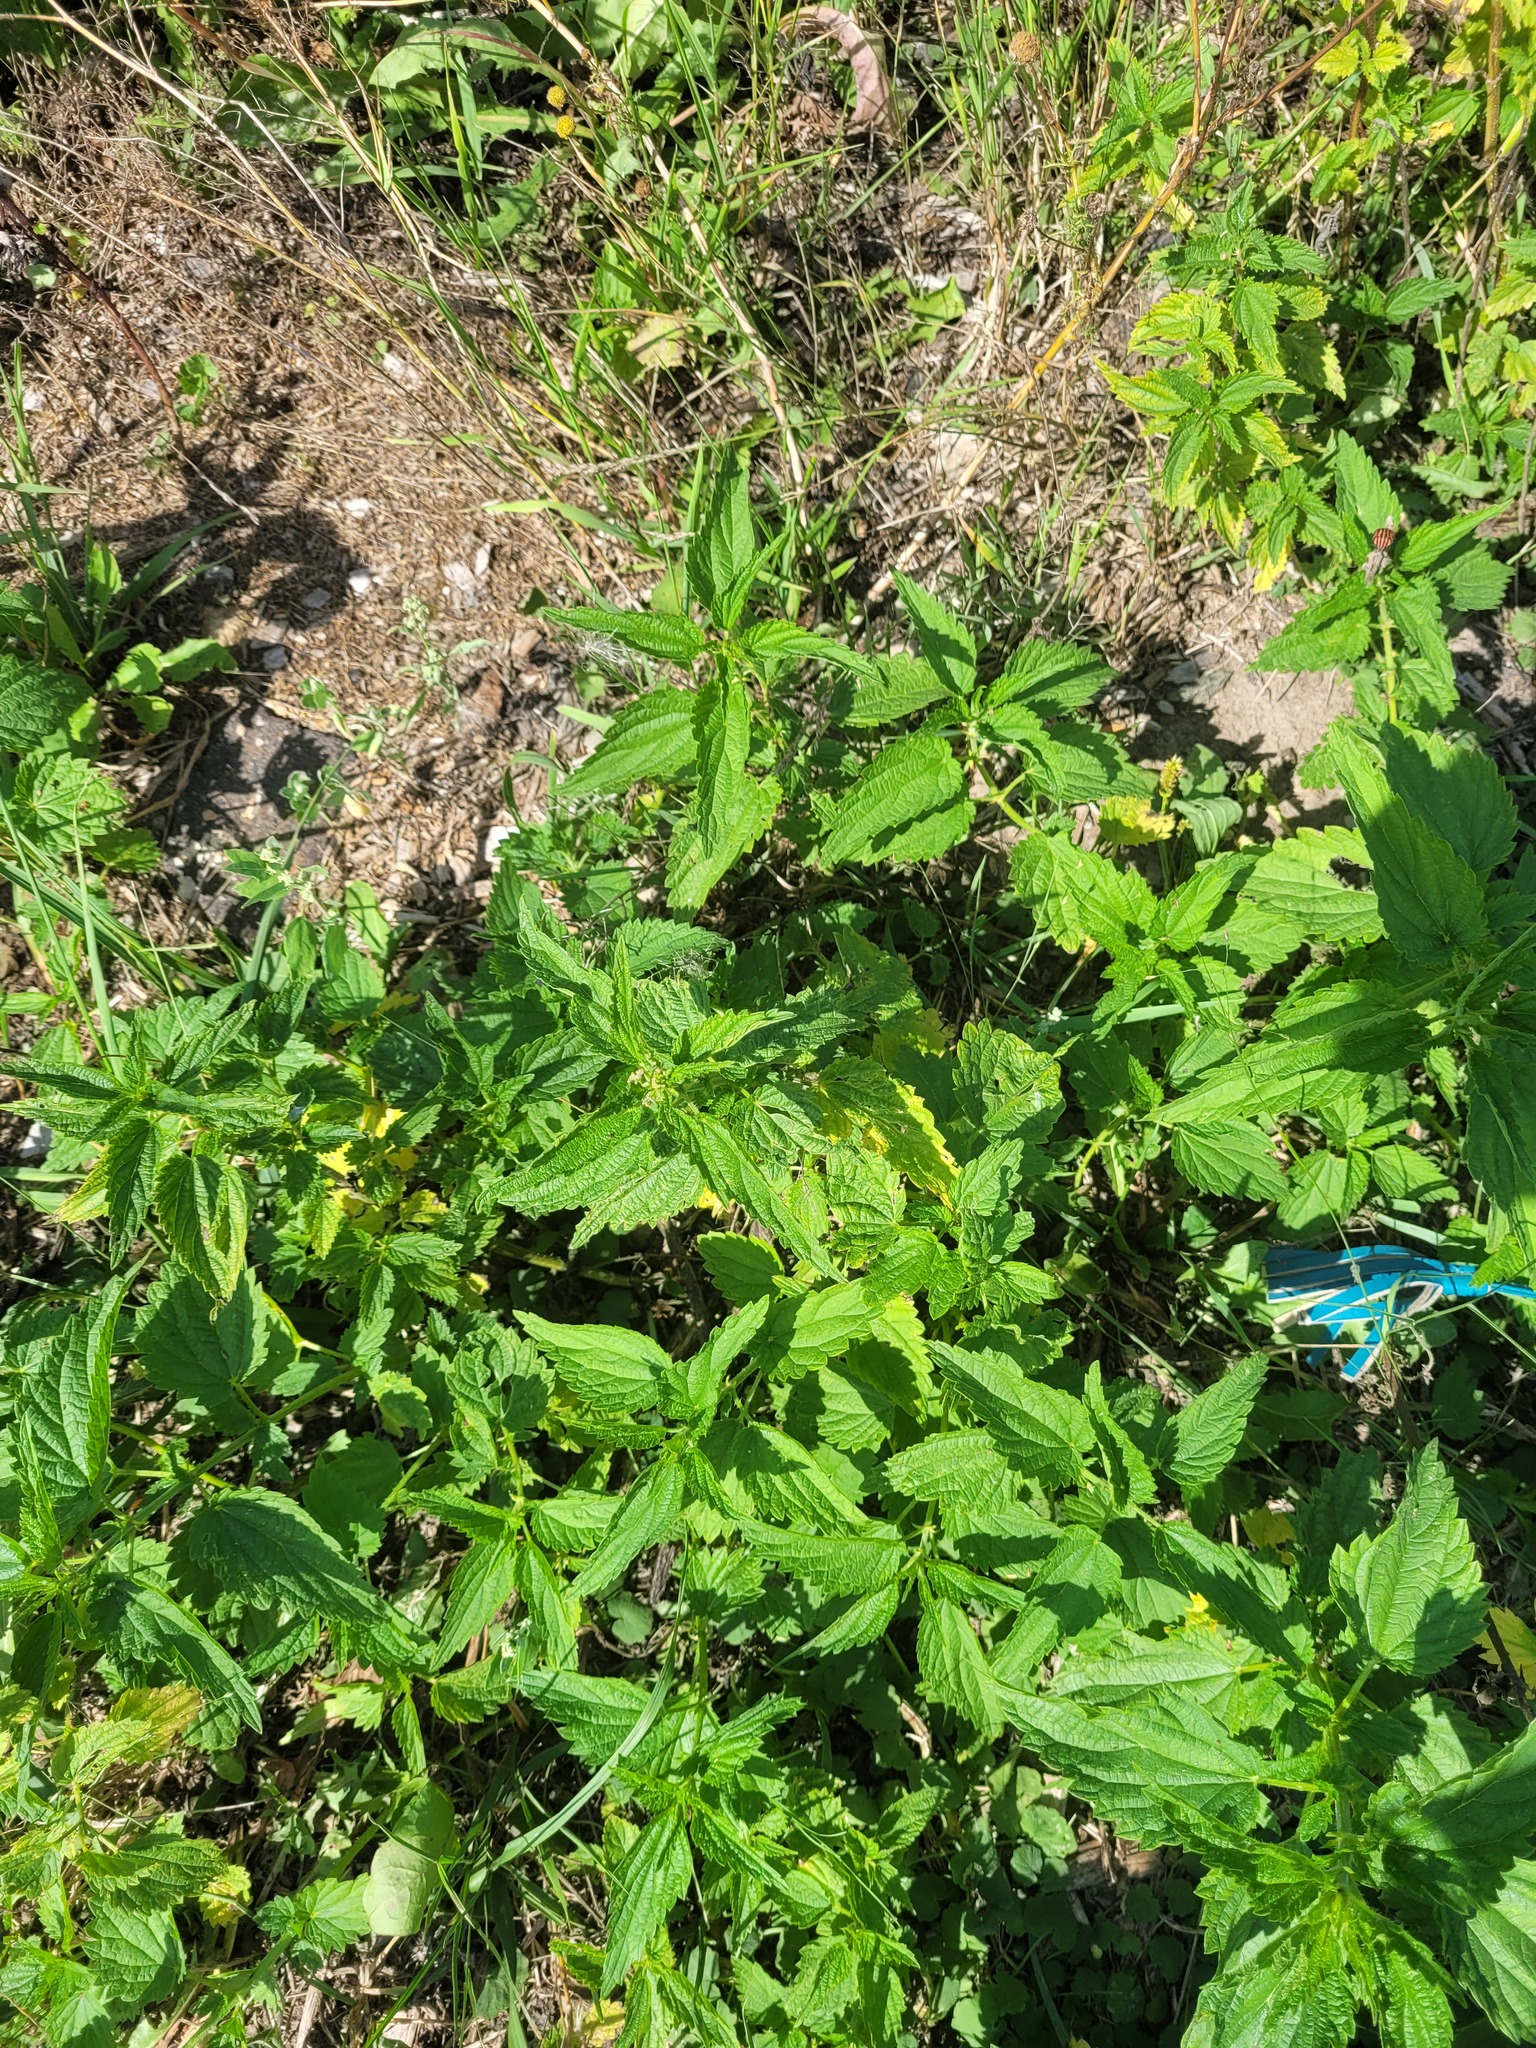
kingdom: Plantae
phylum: Tracheophyta
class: Magnoliopsida
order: Rosales
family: Urticaceae
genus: Urtica
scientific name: Urtica dioica
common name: Common nettle
